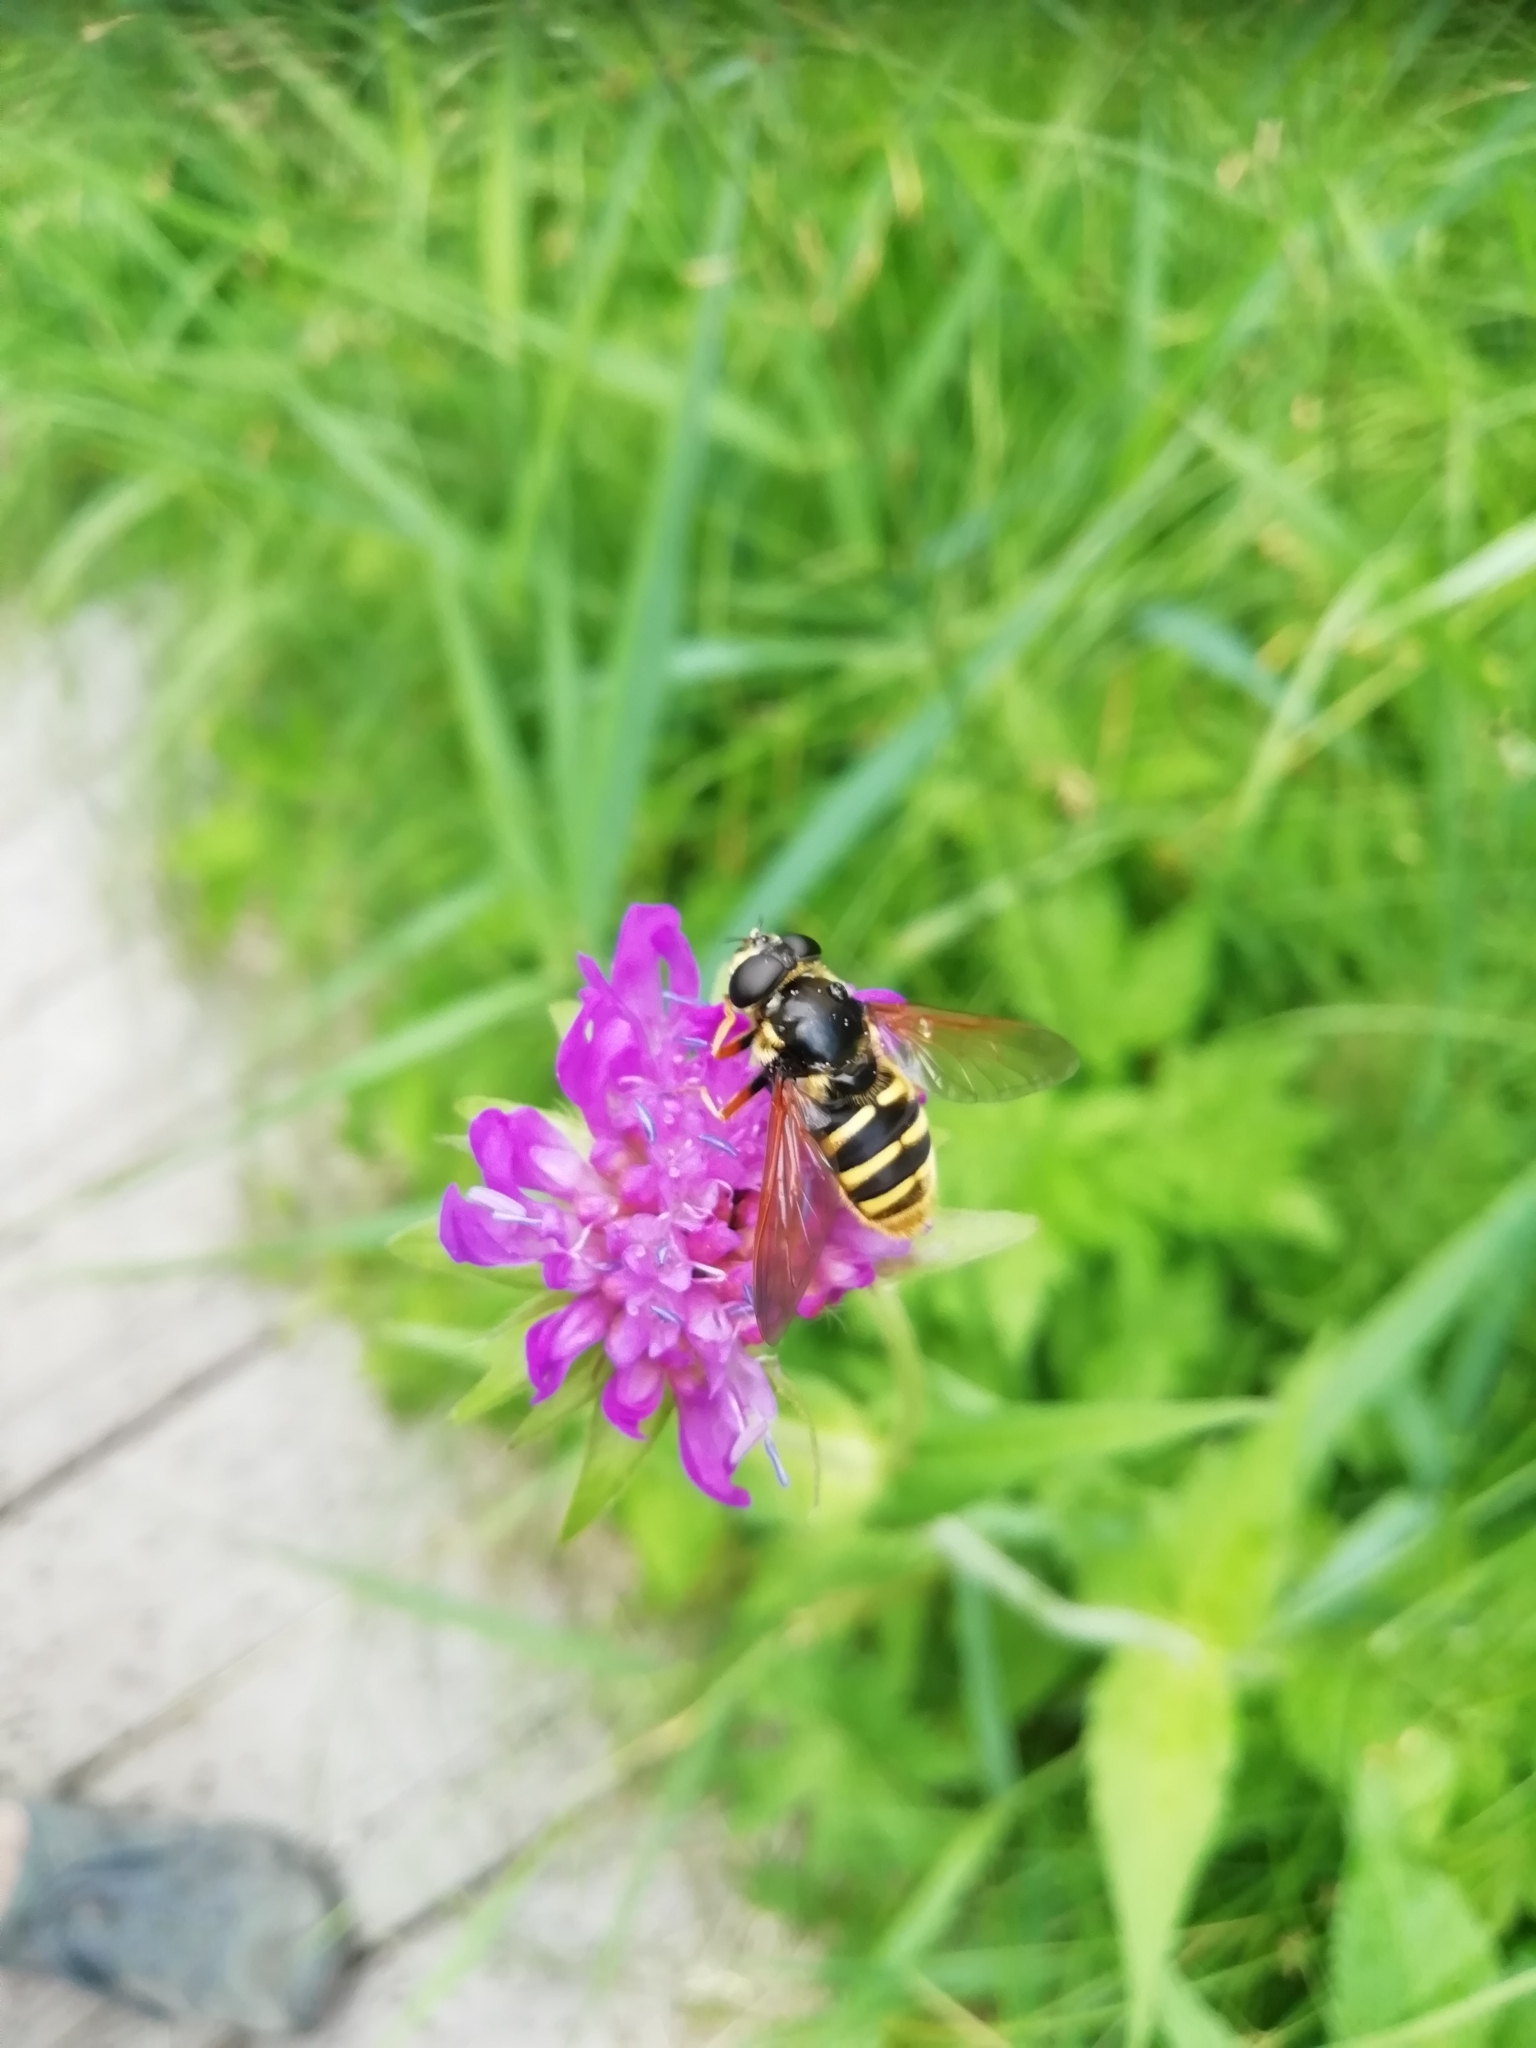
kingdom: Animalia
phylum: Arthropoda
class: Insecta
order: Diptera
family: Syrphidae
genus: Sericomyia
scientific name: Sericomyia silentis
